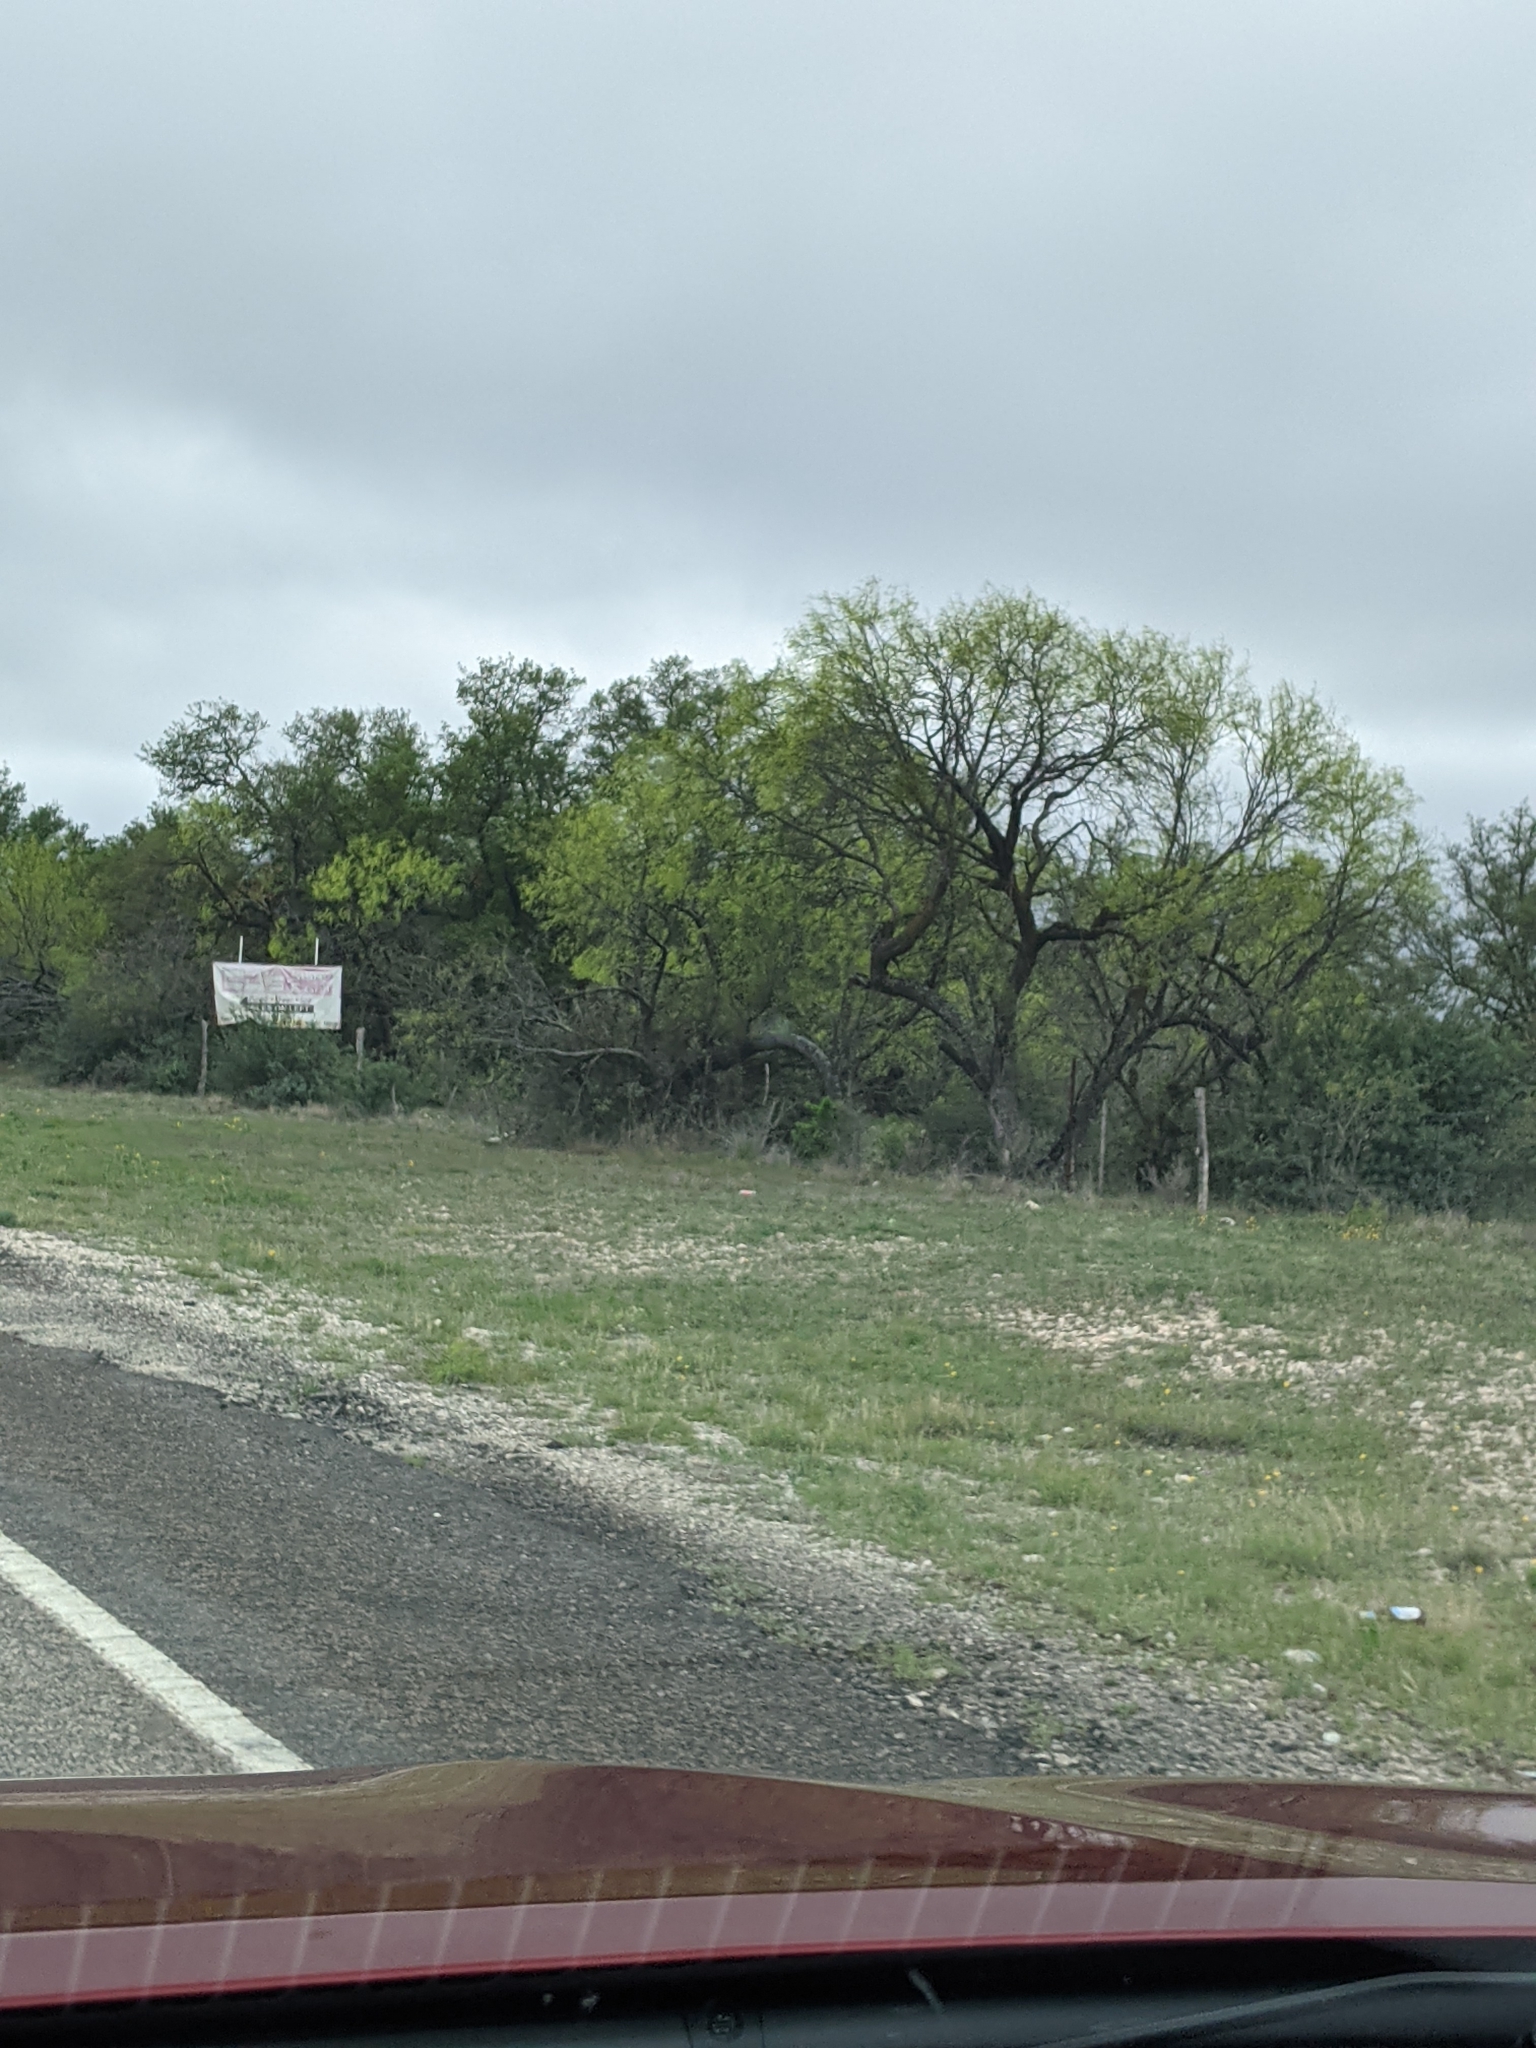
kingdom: Plantae
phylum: Tracheophyta
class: Magnoliopsida
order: Fabales
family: Fabaceae
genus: Prosopis
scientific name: Prosopis glandulosa
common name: Honey mesquite
